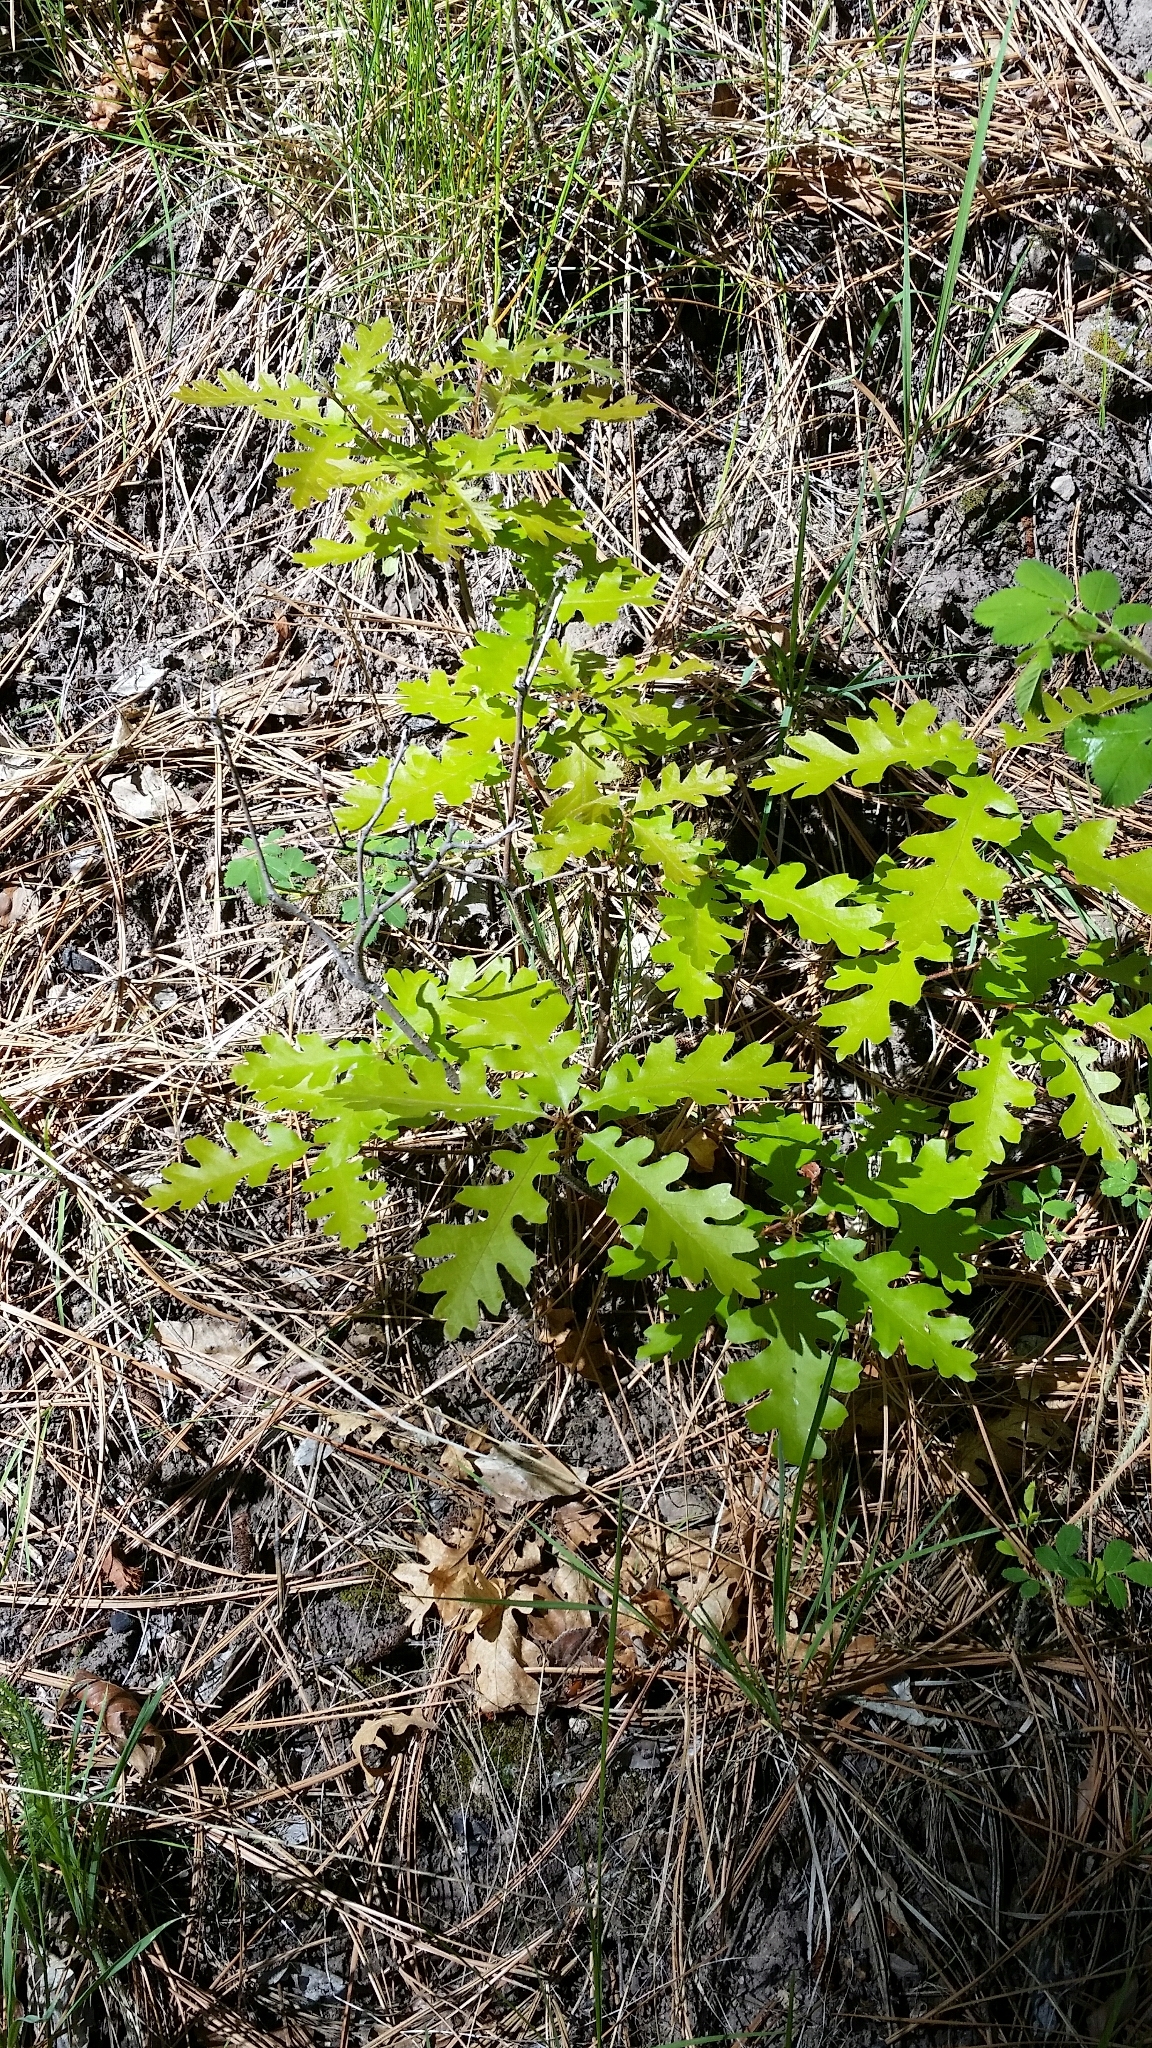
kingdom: Plantae
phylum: Tracheophyta
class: Magnoliopsida
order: Fagales
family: Fagaceae
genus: Quercus
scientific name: Quercus gambelii
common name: Gambel oak
